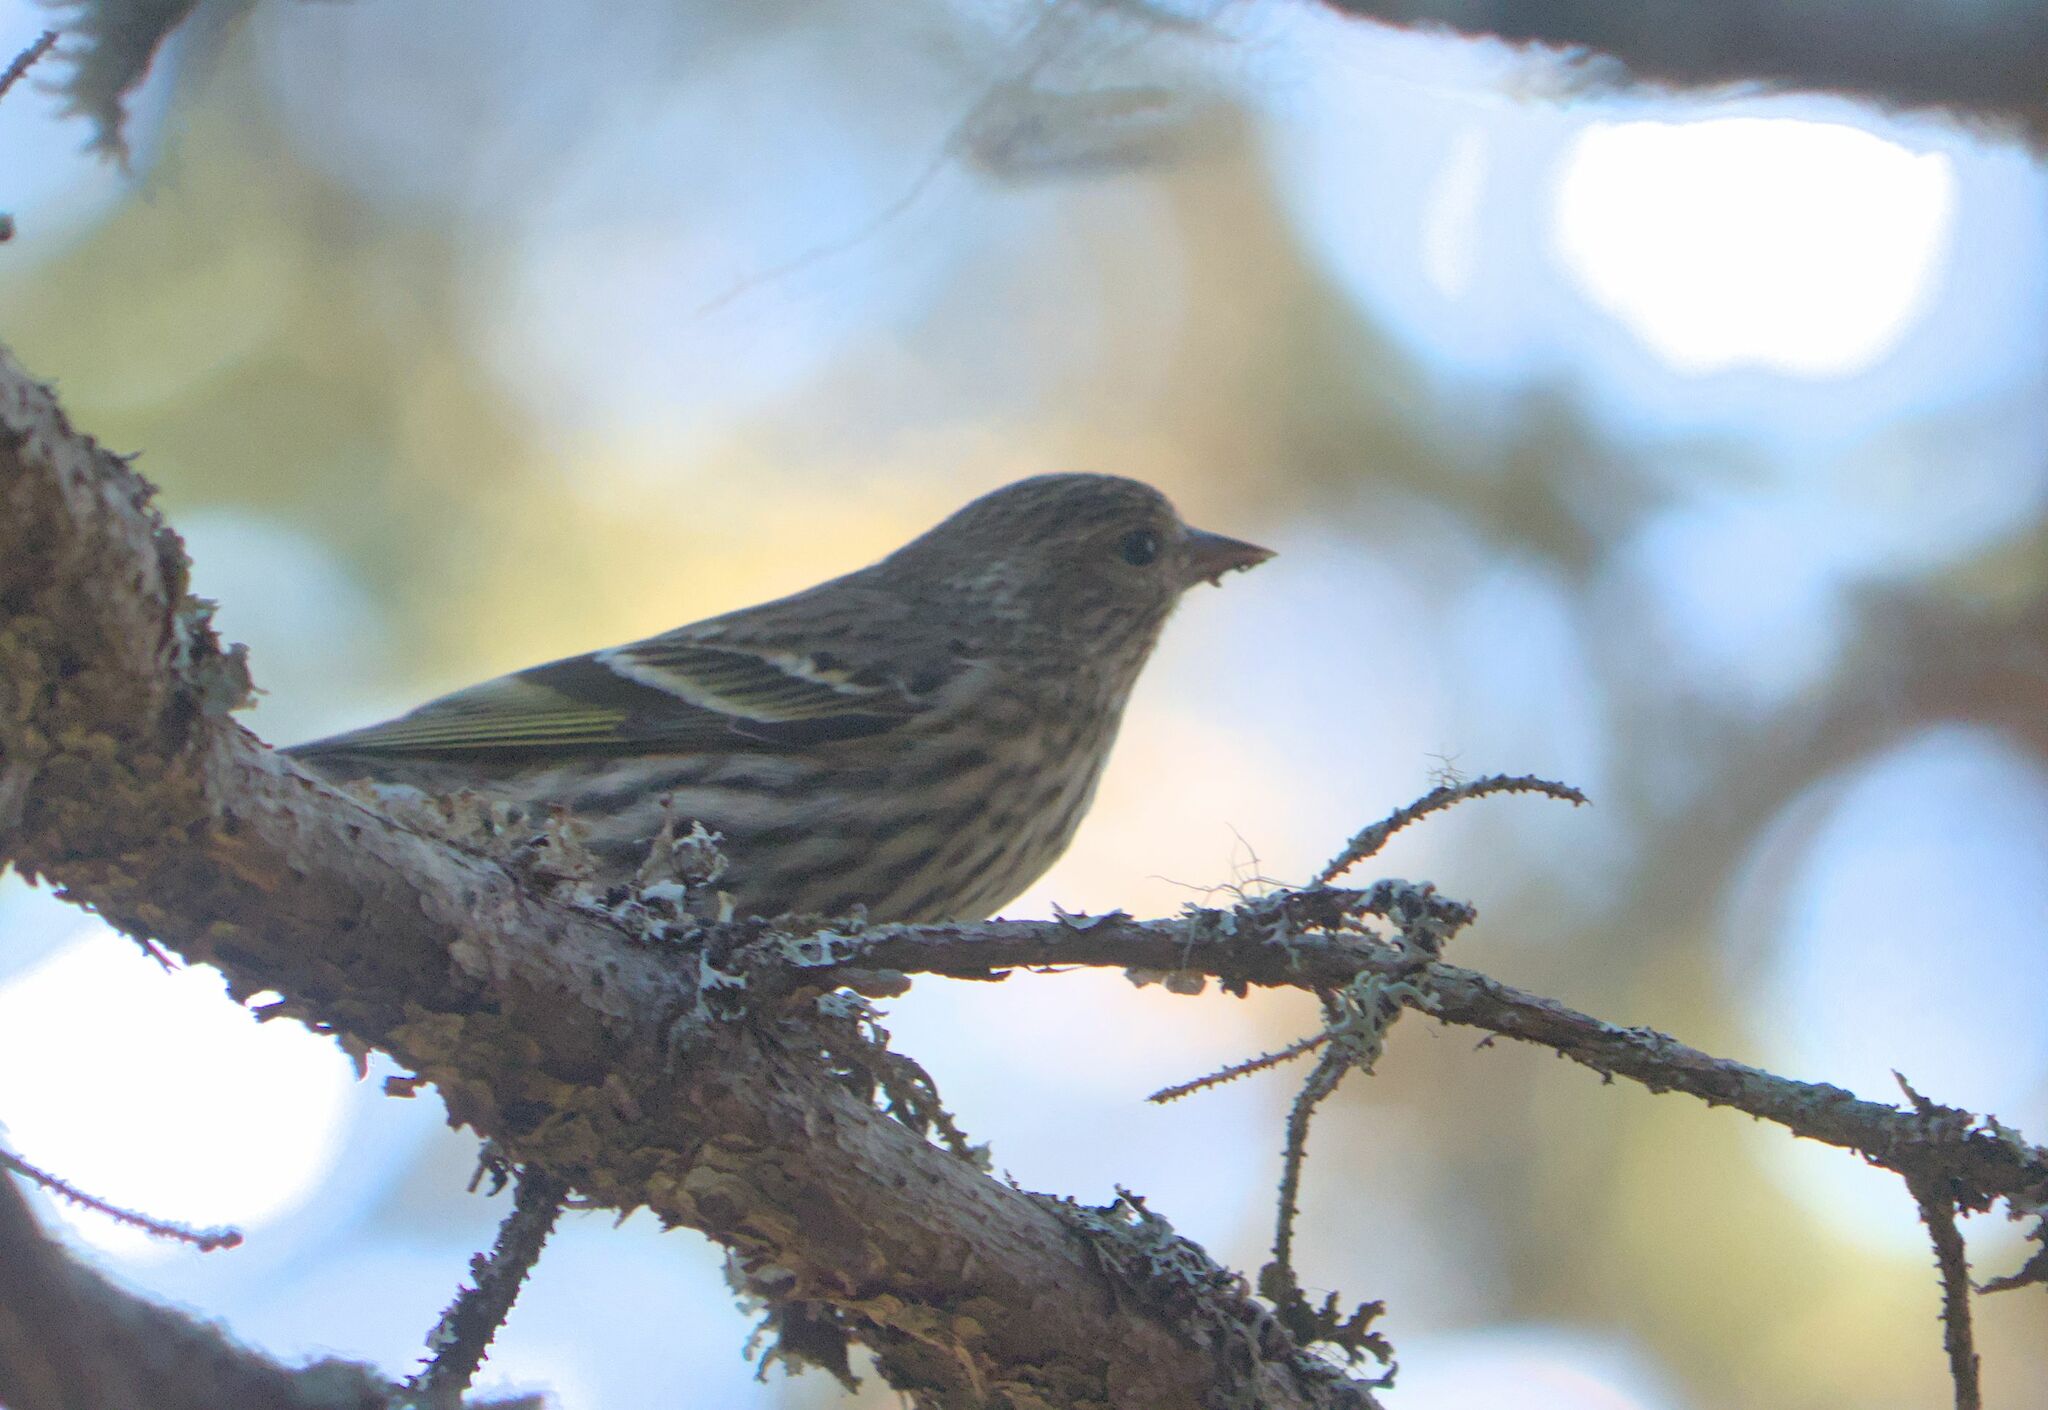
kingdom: Animalia
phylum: Chordata
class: Aves
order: Passeriformes
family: Fringillidae
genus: Spinus
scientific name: Spinus pinus
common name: Pine siskin
